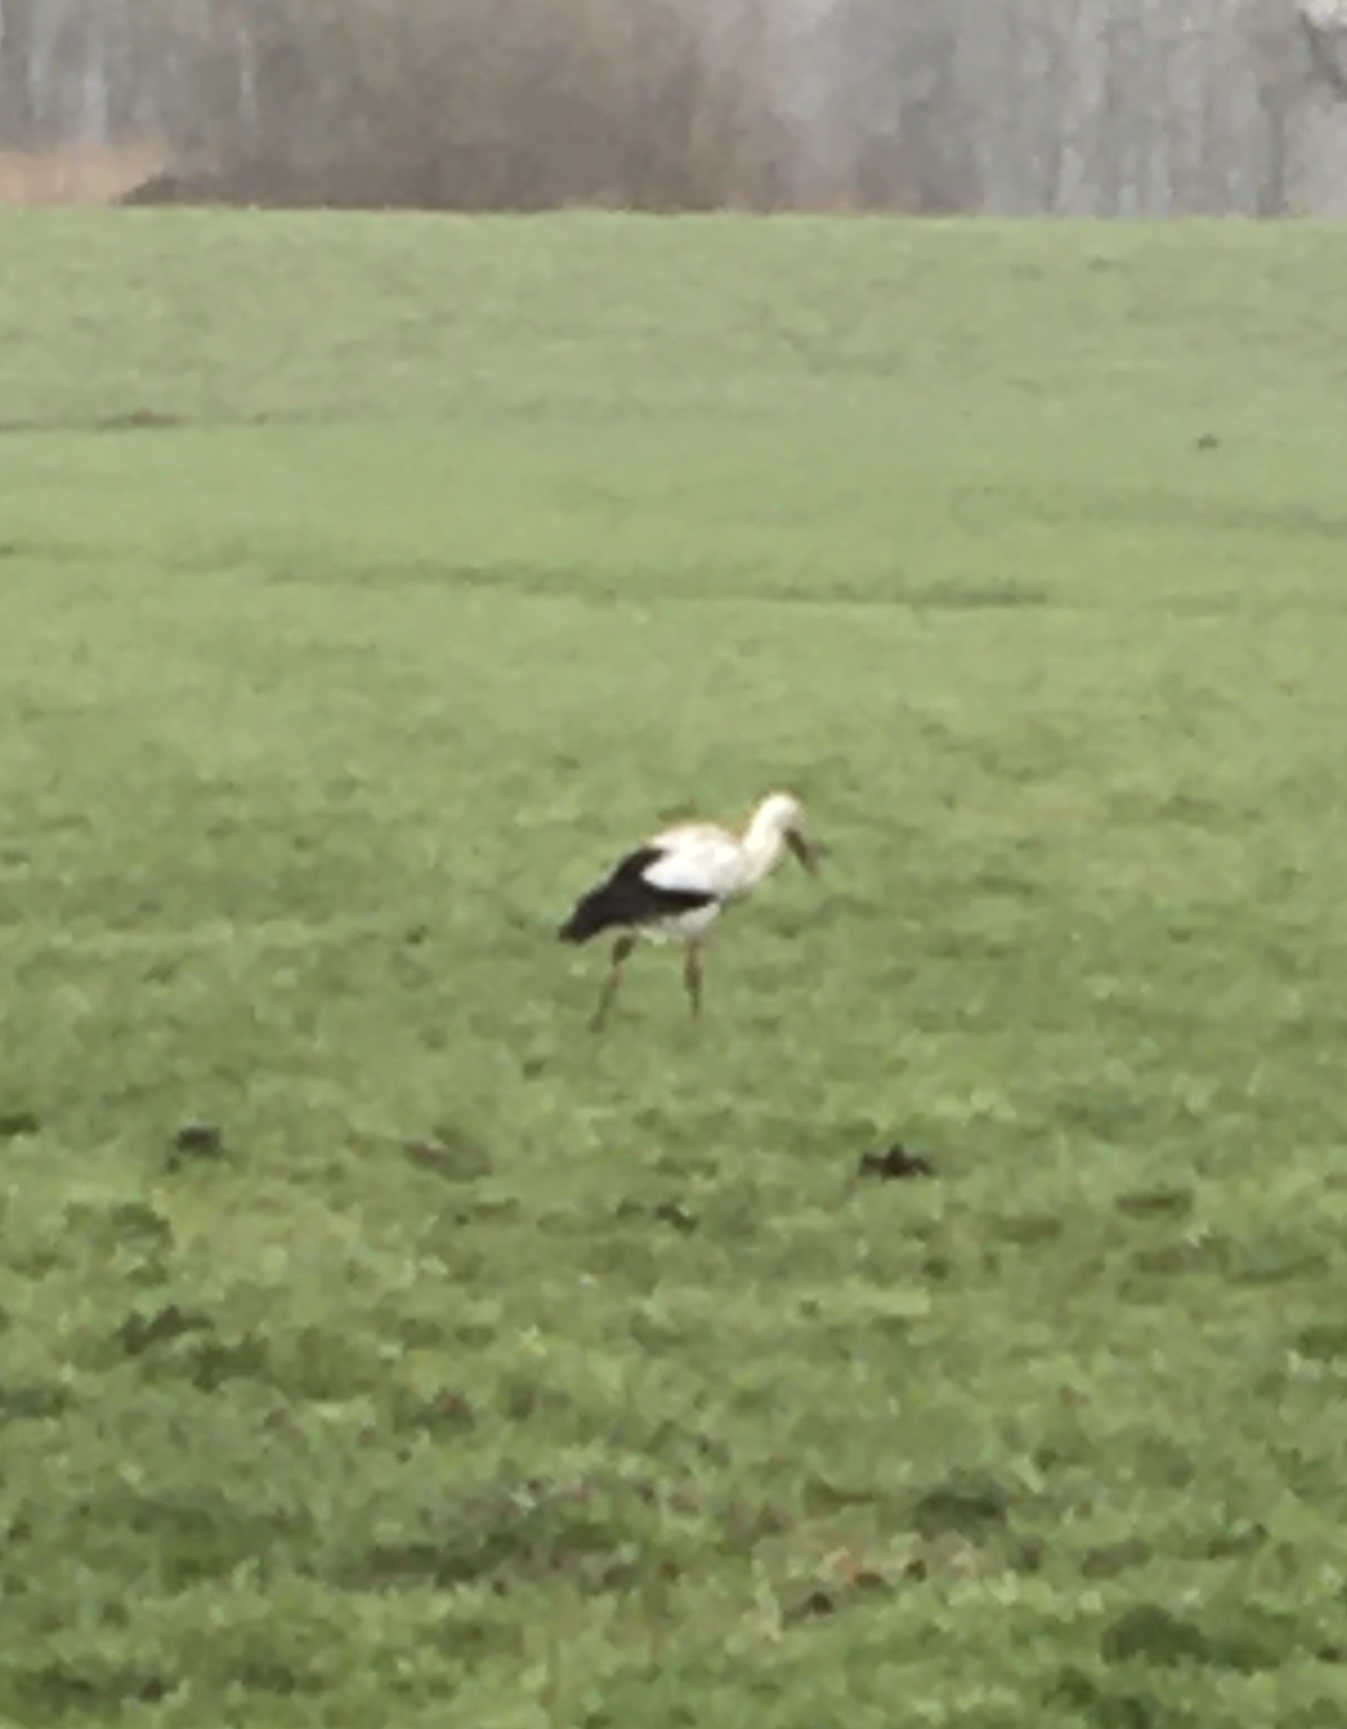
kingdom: Animalia
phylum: Chordata
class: Aves
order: Ciconiiformes
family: Ciconiidae
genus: Ciconia
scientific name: Ciconia ciconia
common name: White stork
